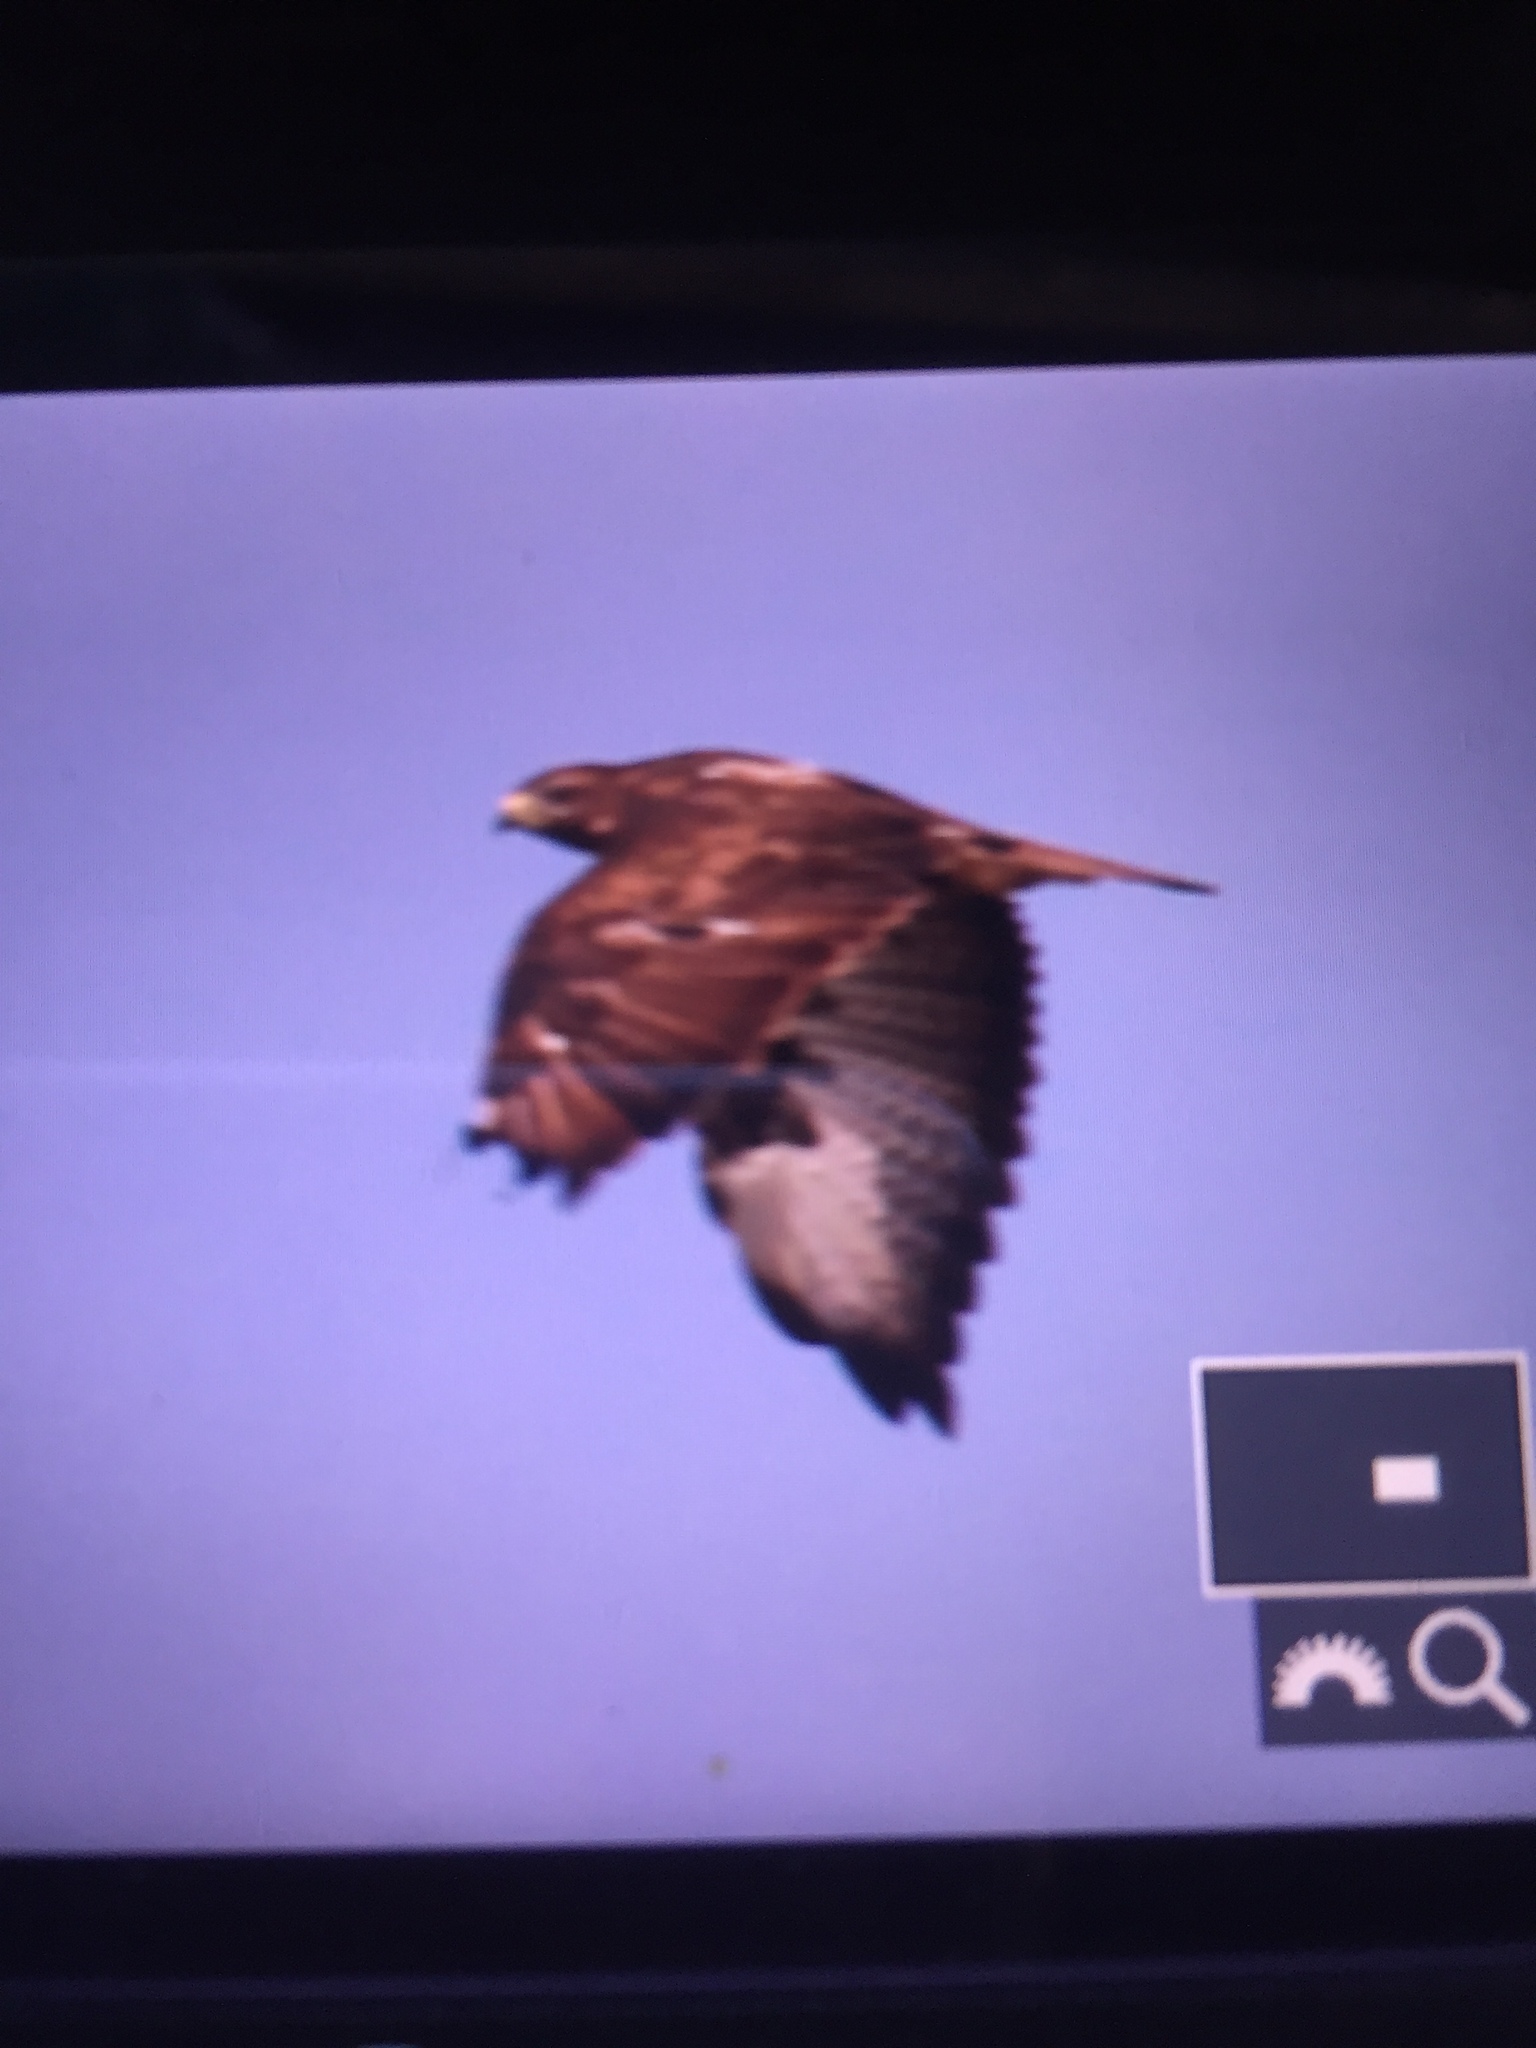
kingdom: Animalia
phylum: Chordata
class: Aves
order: Accipitriformes
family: Accipitridae
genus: Buteo
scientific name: Buteo buteo
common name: Common buzzard
